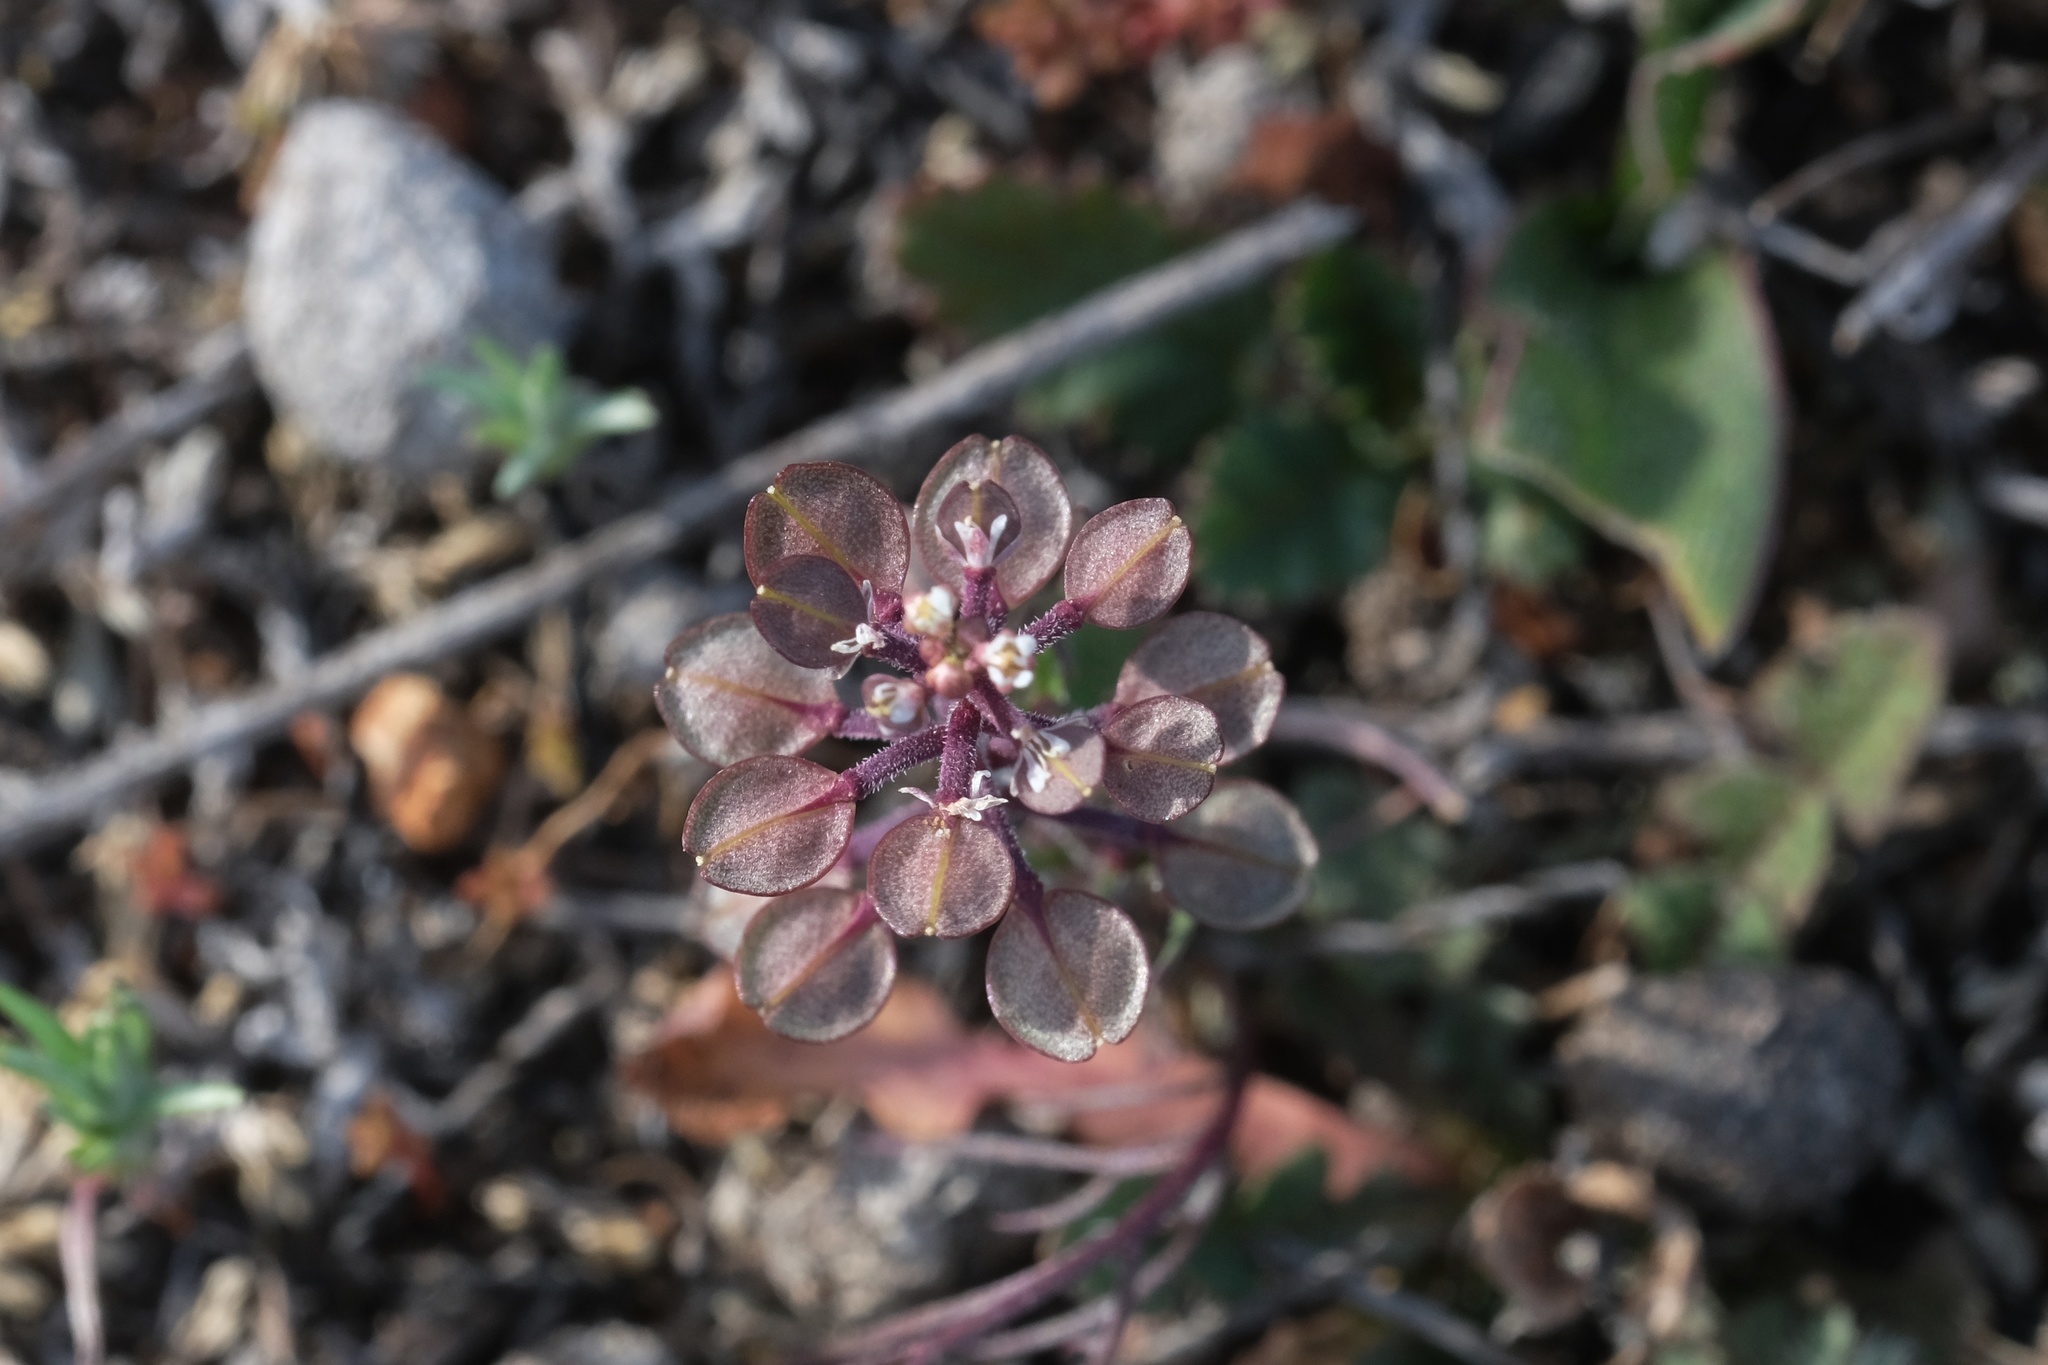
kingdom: Plantae
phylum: Tracheophyta
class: Magnoliopsida
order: Brassicales
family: Brassicaceae
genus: Lepidium
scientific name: Lepidium nitidum
